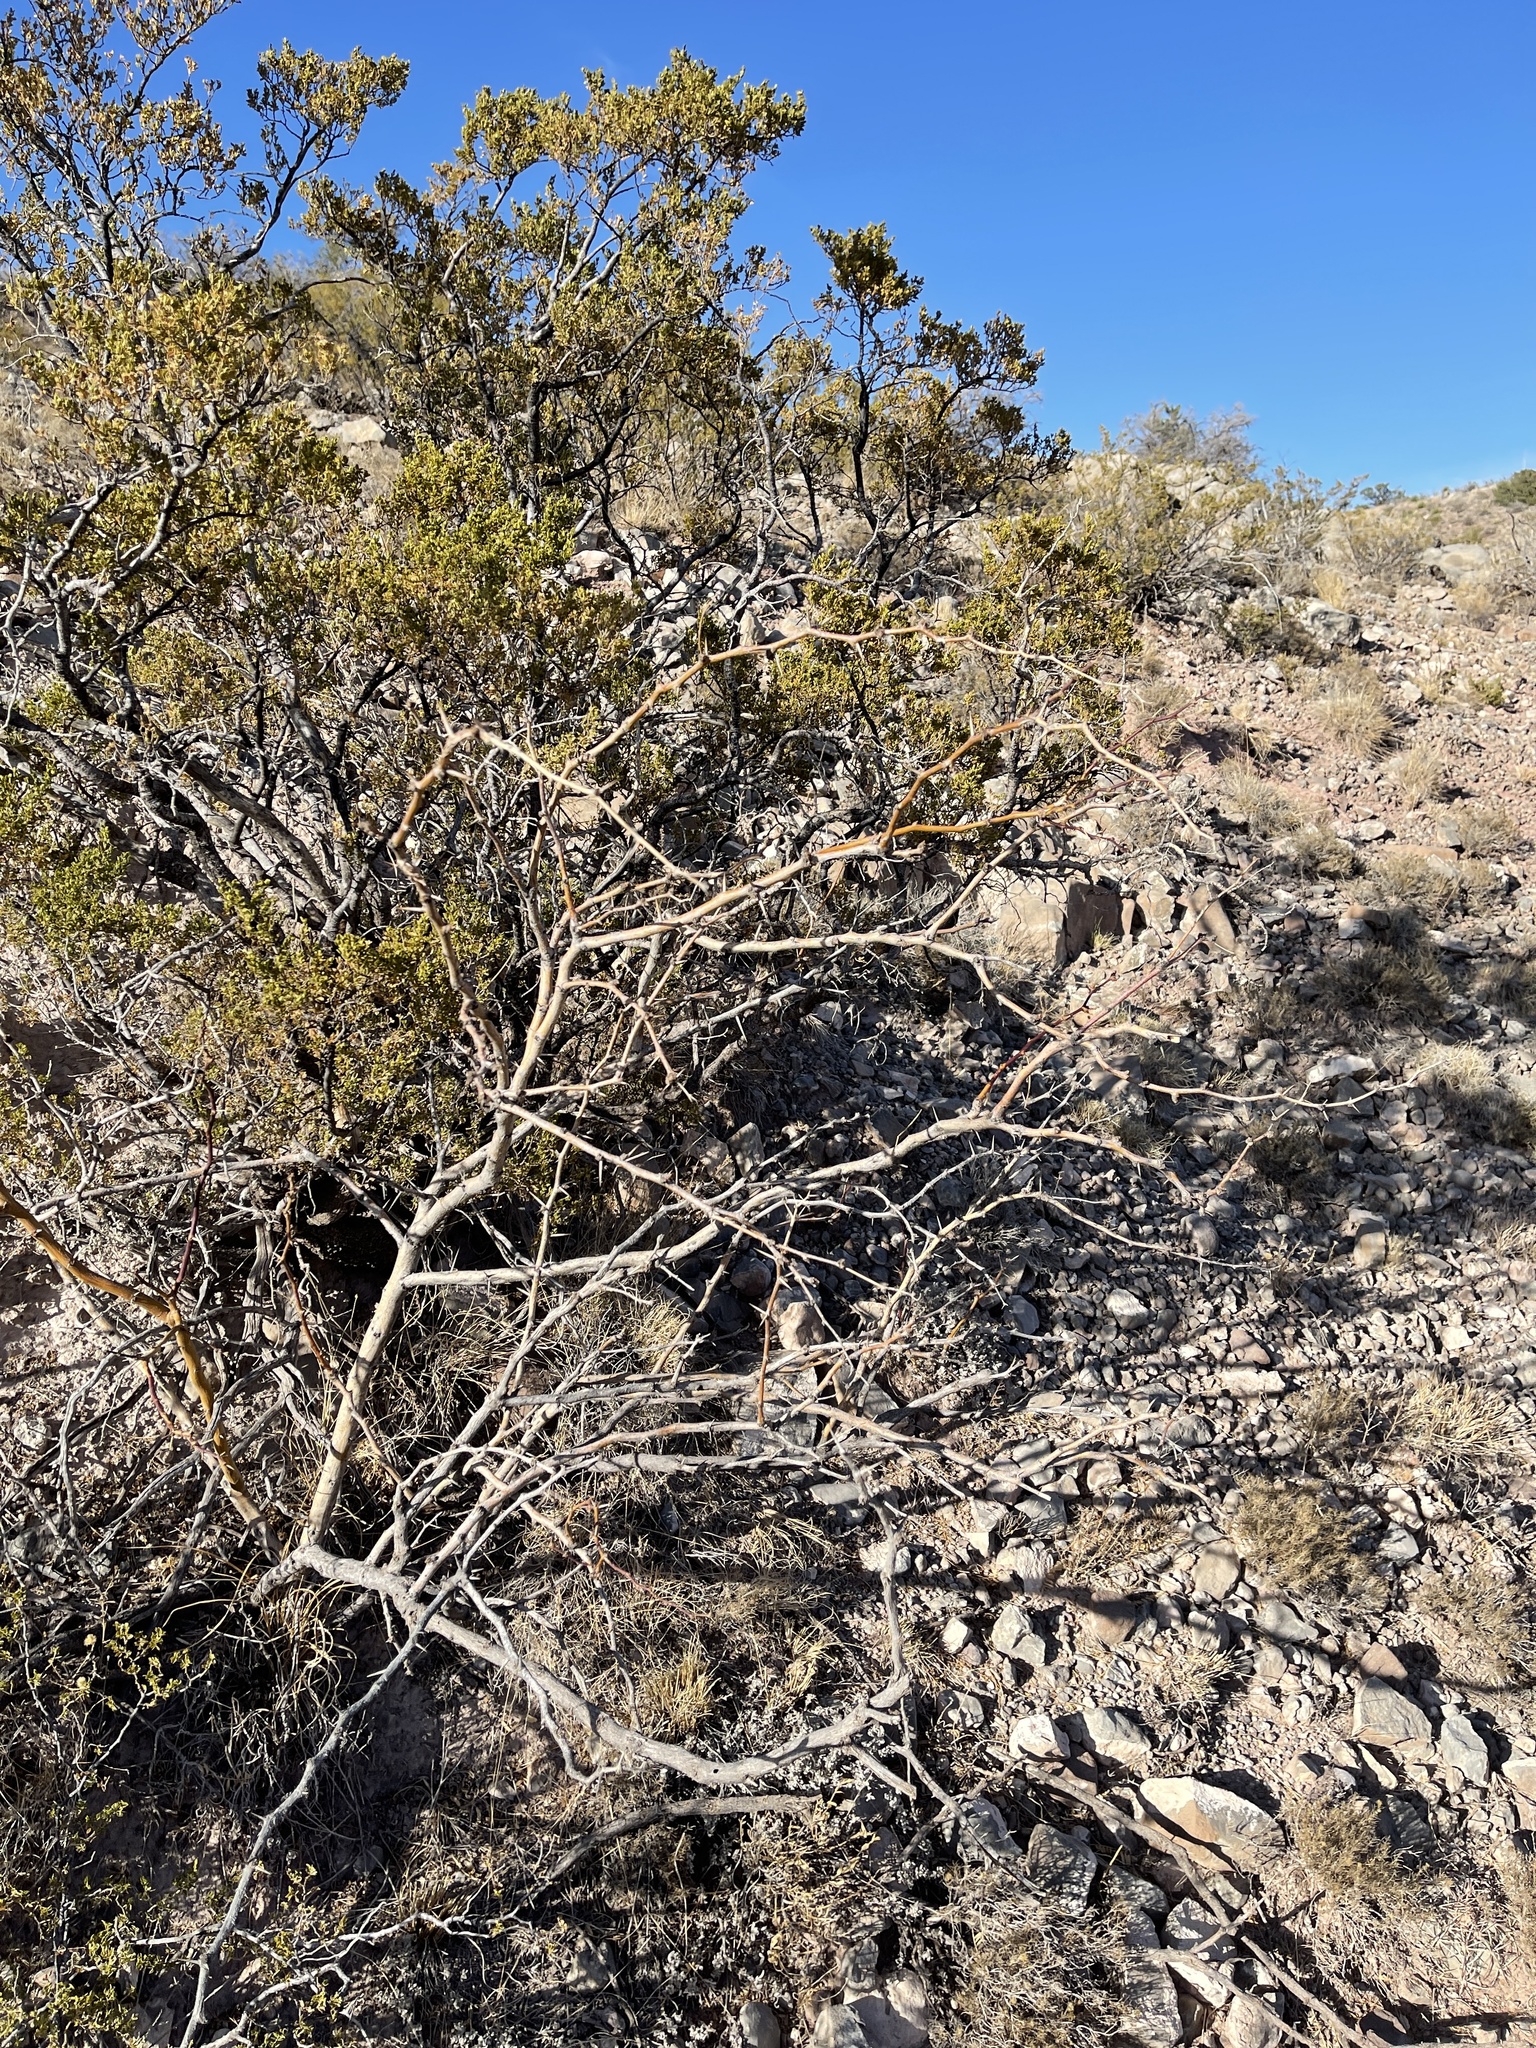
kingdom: Plantae
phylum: Tracheophyta
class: Magnoliopsida
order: Fabales
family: Fabaceae
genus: Prosopis
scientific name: Prosopis glandulosa
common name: Honey mesquite
